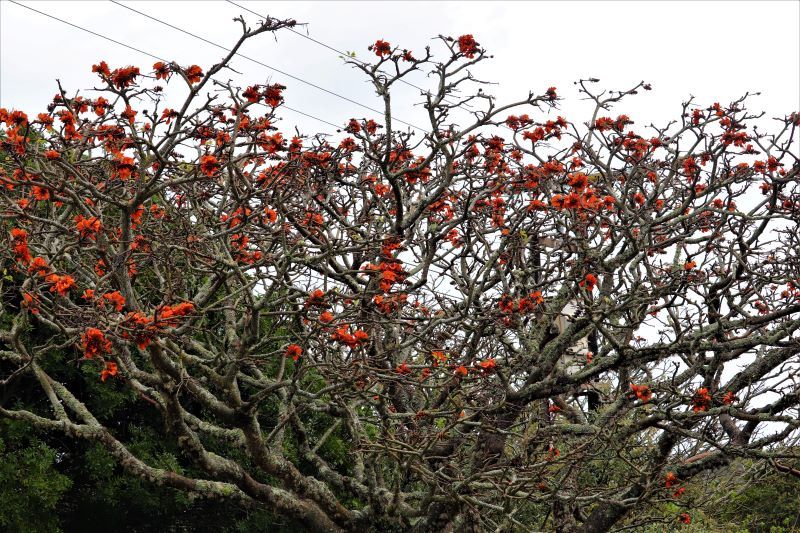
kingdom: Plantae
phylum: Tracheophyta
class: Magnoliopsida
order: Fabales
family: Fabaceae
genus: Erythrina
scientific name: Erythrina caffra
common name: Coast coral tree
